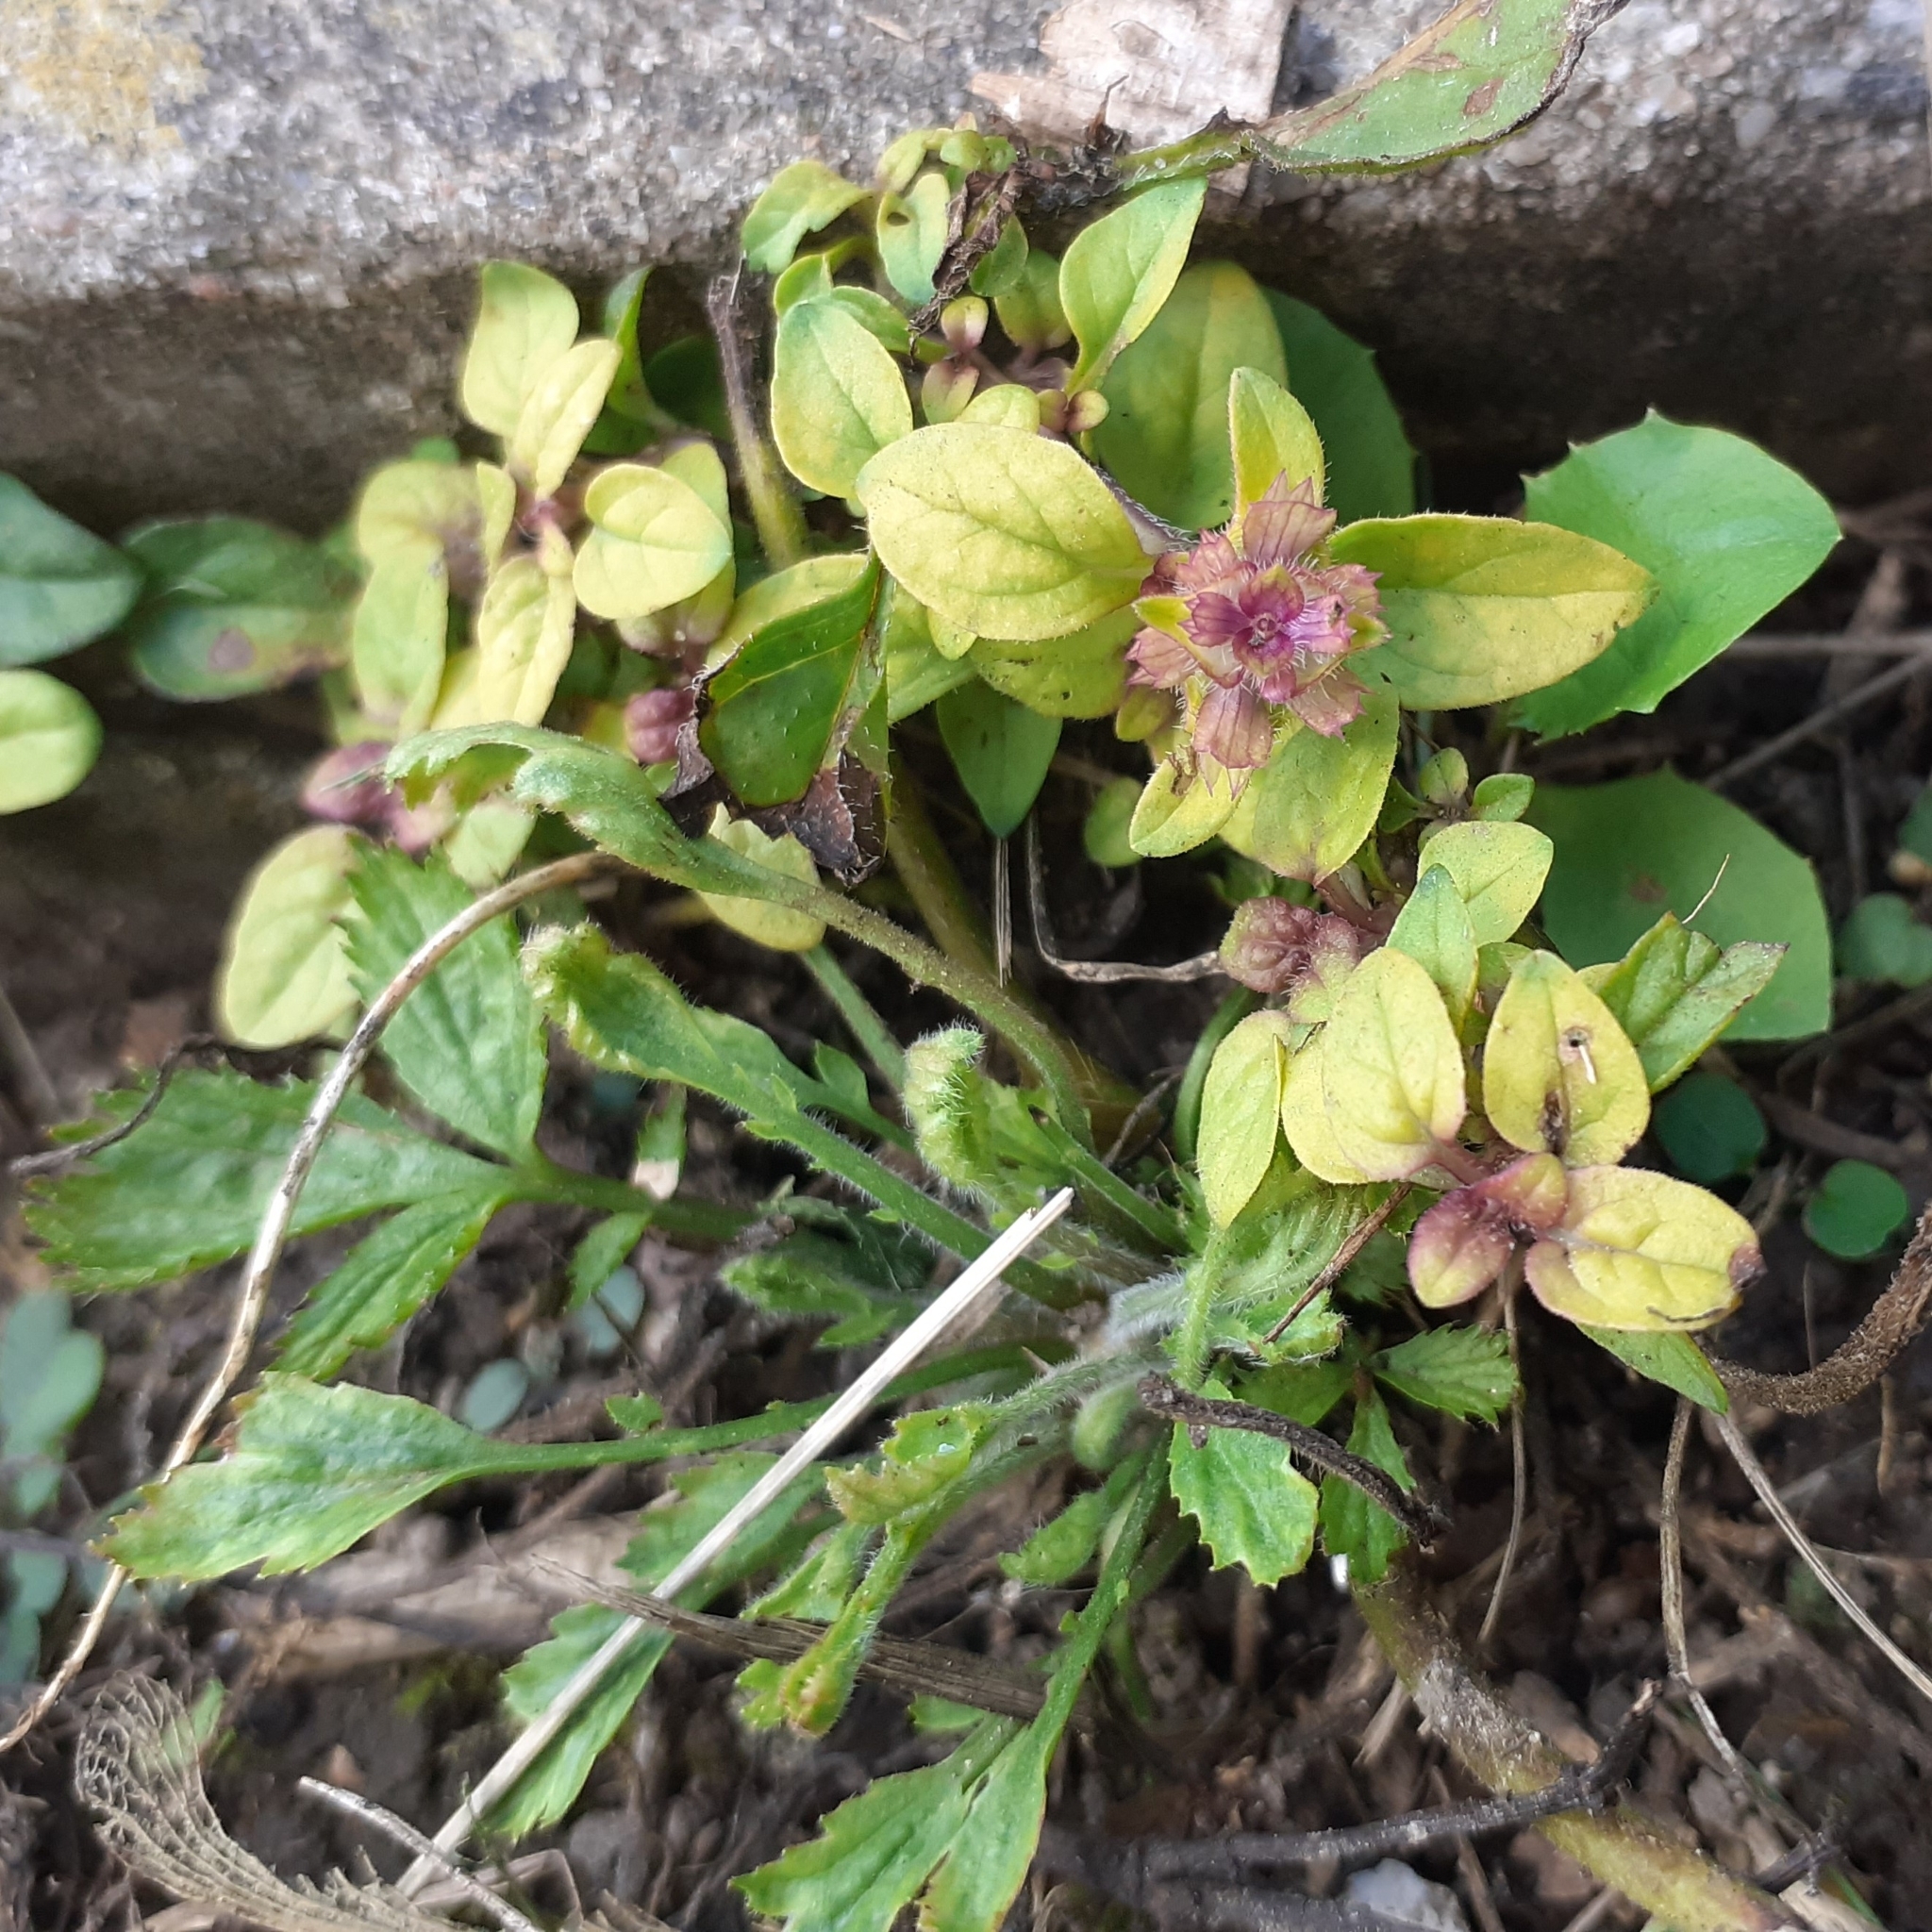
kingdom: Plantae
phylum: Tracheophyta
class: Magnoliopsida
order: Lamiales
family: Lamiaceae
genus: Prunella
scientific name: Prunella vulgaris
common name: Heal-all
